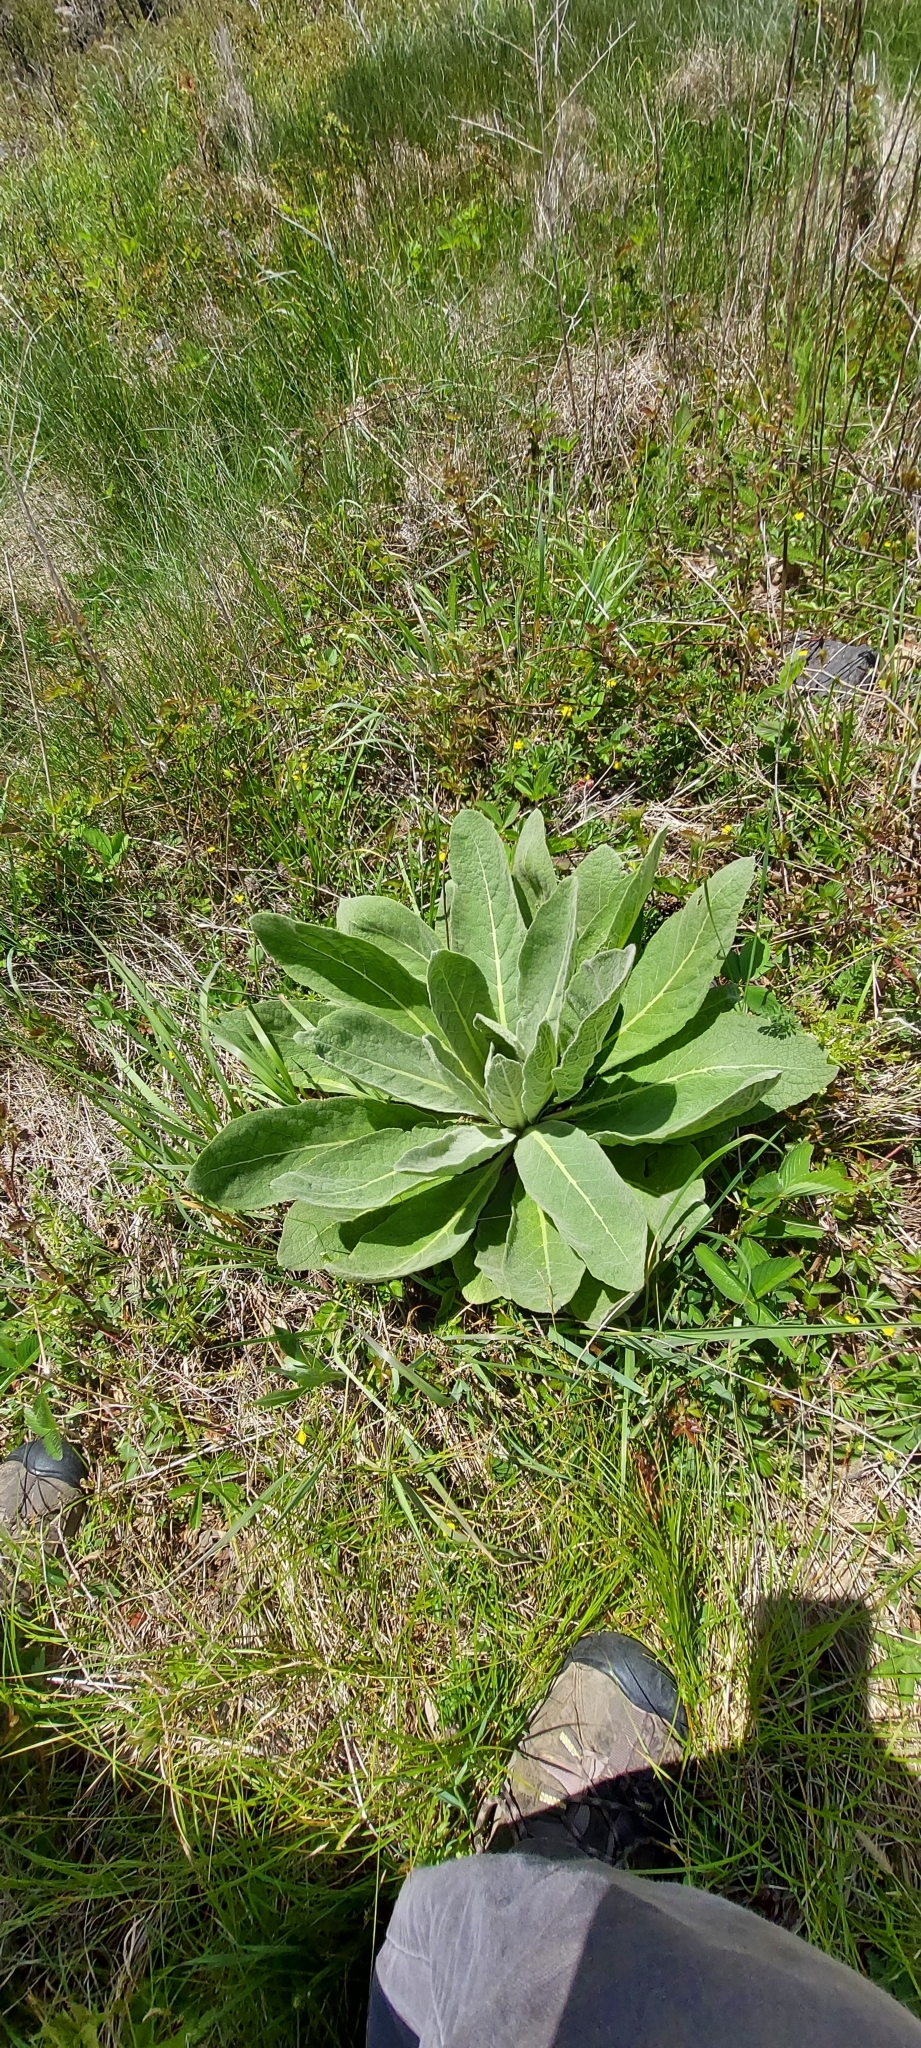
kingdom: Plantae
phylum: Tracheophyta
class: Magnoliopsida
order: Lamiales
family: Scrophulariaceae
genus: Verbascum
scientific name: Verbascum thapsus
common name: Common mullein
